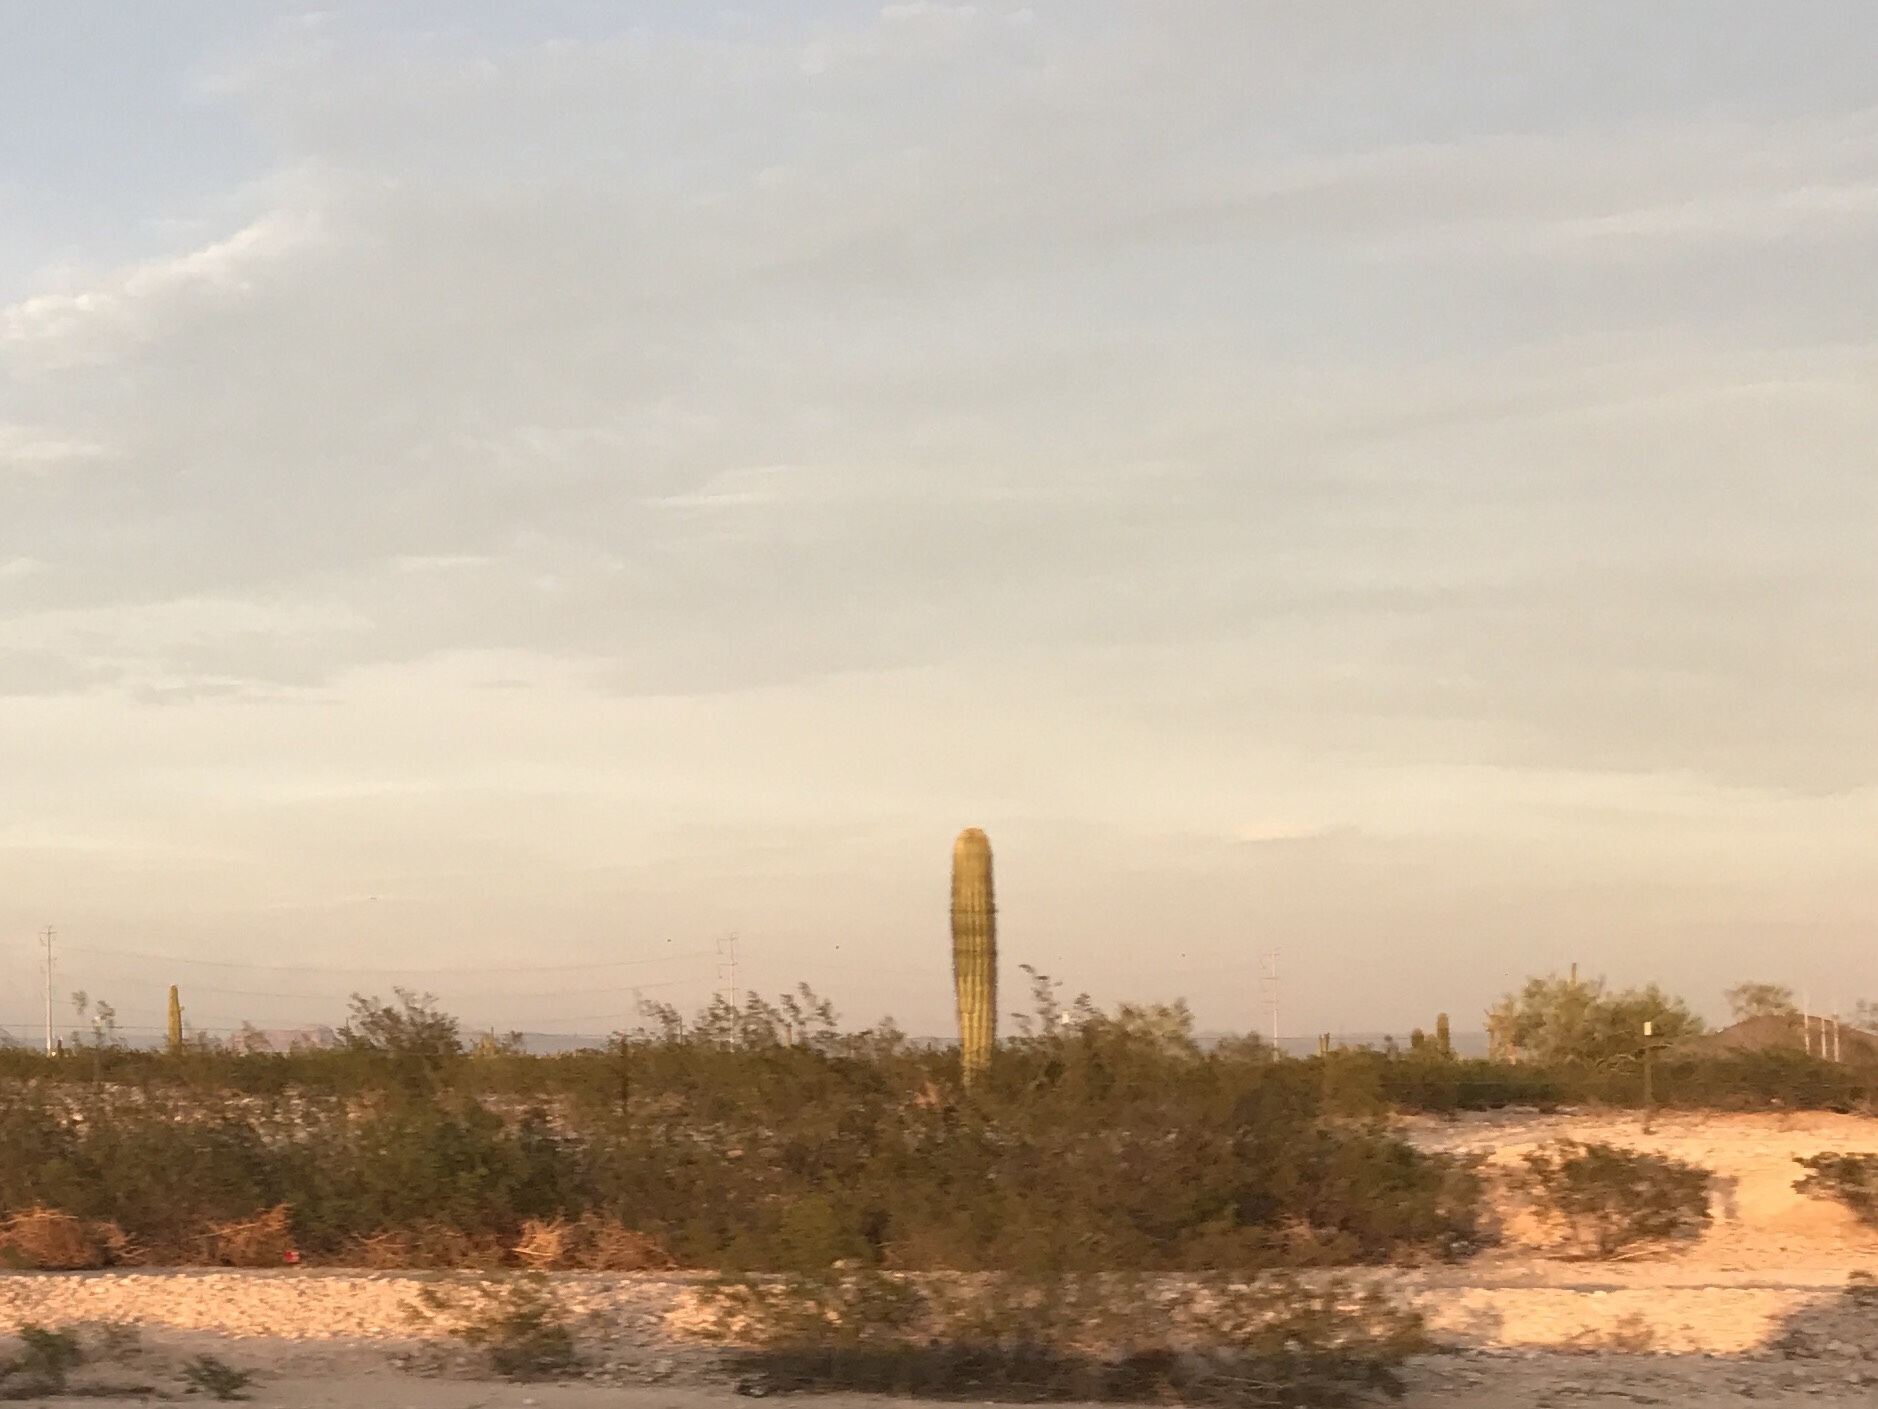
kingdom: Plantae
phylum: Tracheophyta
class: Magnoliopsida
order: Caryophyllales
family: Cactaceae
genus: Carnegiea
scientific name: Carnegiea gigantea
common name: Saguaro
